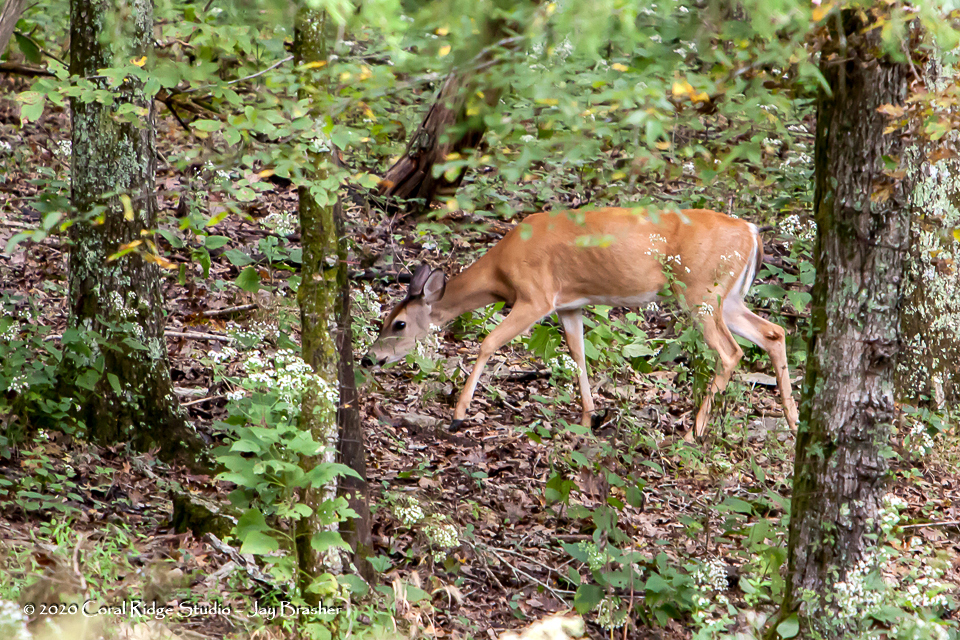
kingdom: Animalia
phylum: Chordata
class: Mammalia
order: Artiodactyla
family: Cervidae
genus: Odocoileus
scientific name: Odocoileus virginianus
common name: White-tailed deer
